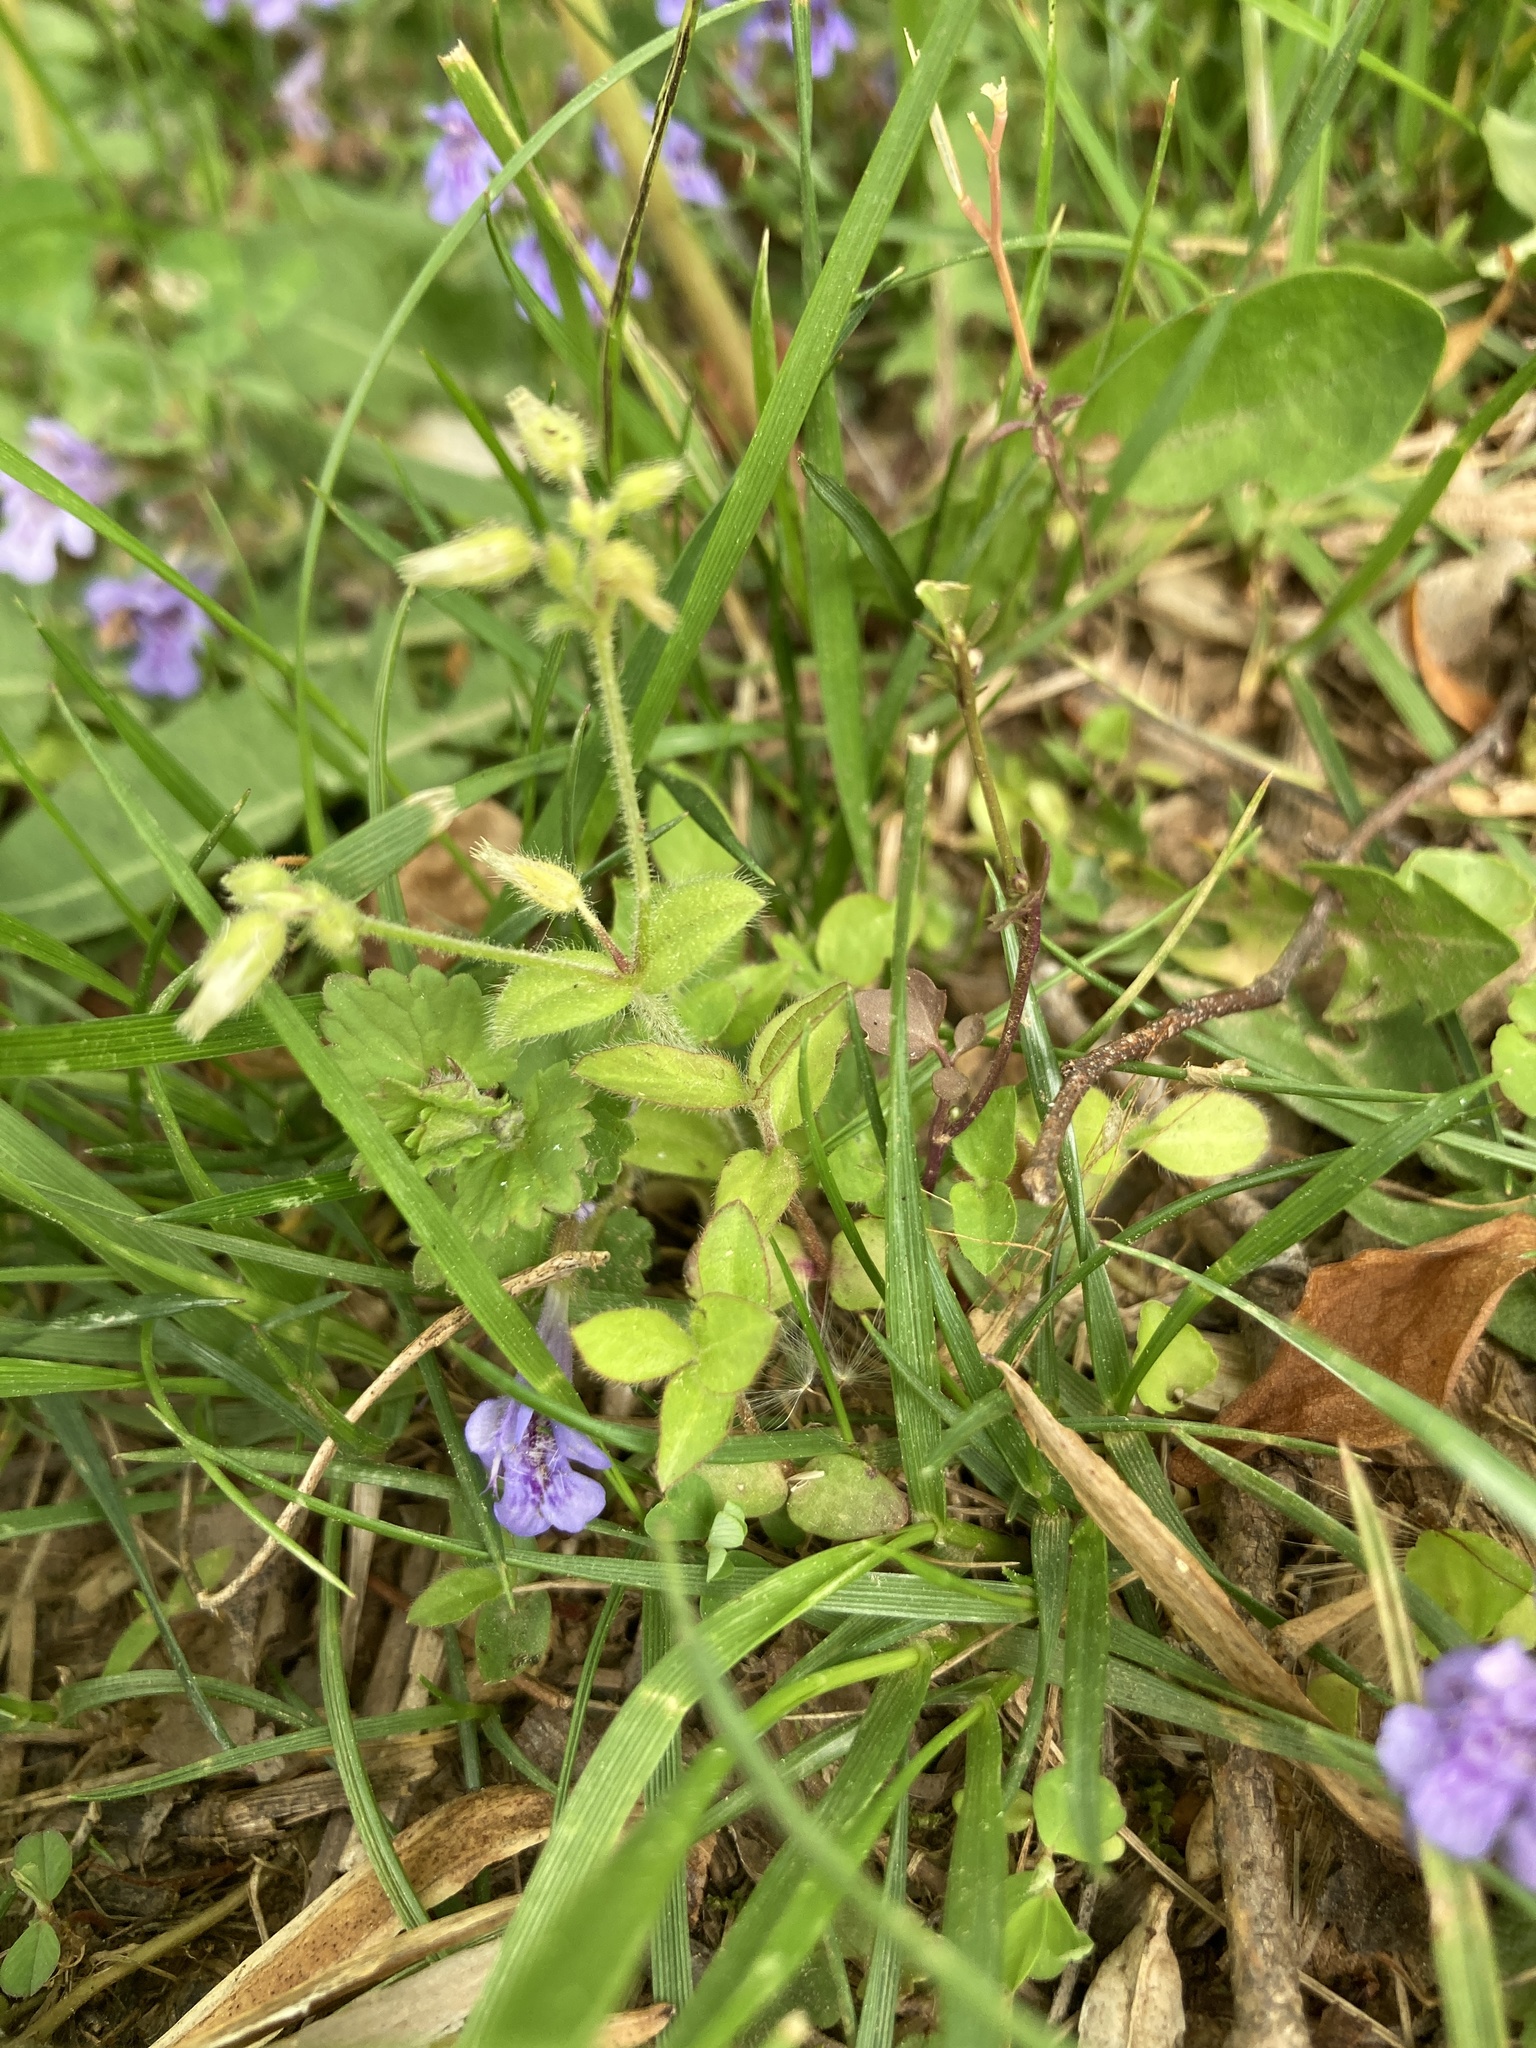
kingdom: Plantae
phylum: Tracheophyta
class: Magnoliopsida
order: Lamiales
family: Lamiaceae
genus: Glechoma
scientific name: Glechoma hederacea
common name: Ground ivy
